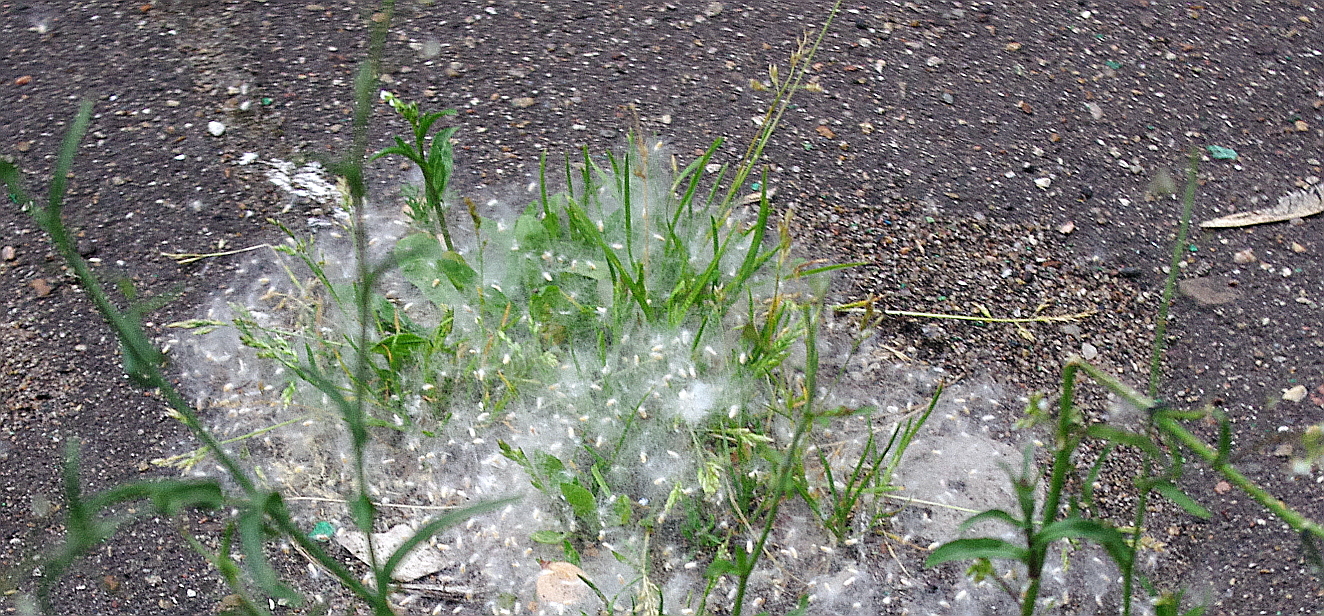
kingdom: Plantae
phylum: Tracheophyta
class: Liliopsida
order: Poales
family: Poaceae
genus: Poa
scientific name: Poa annua
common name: Annual bluegrass
